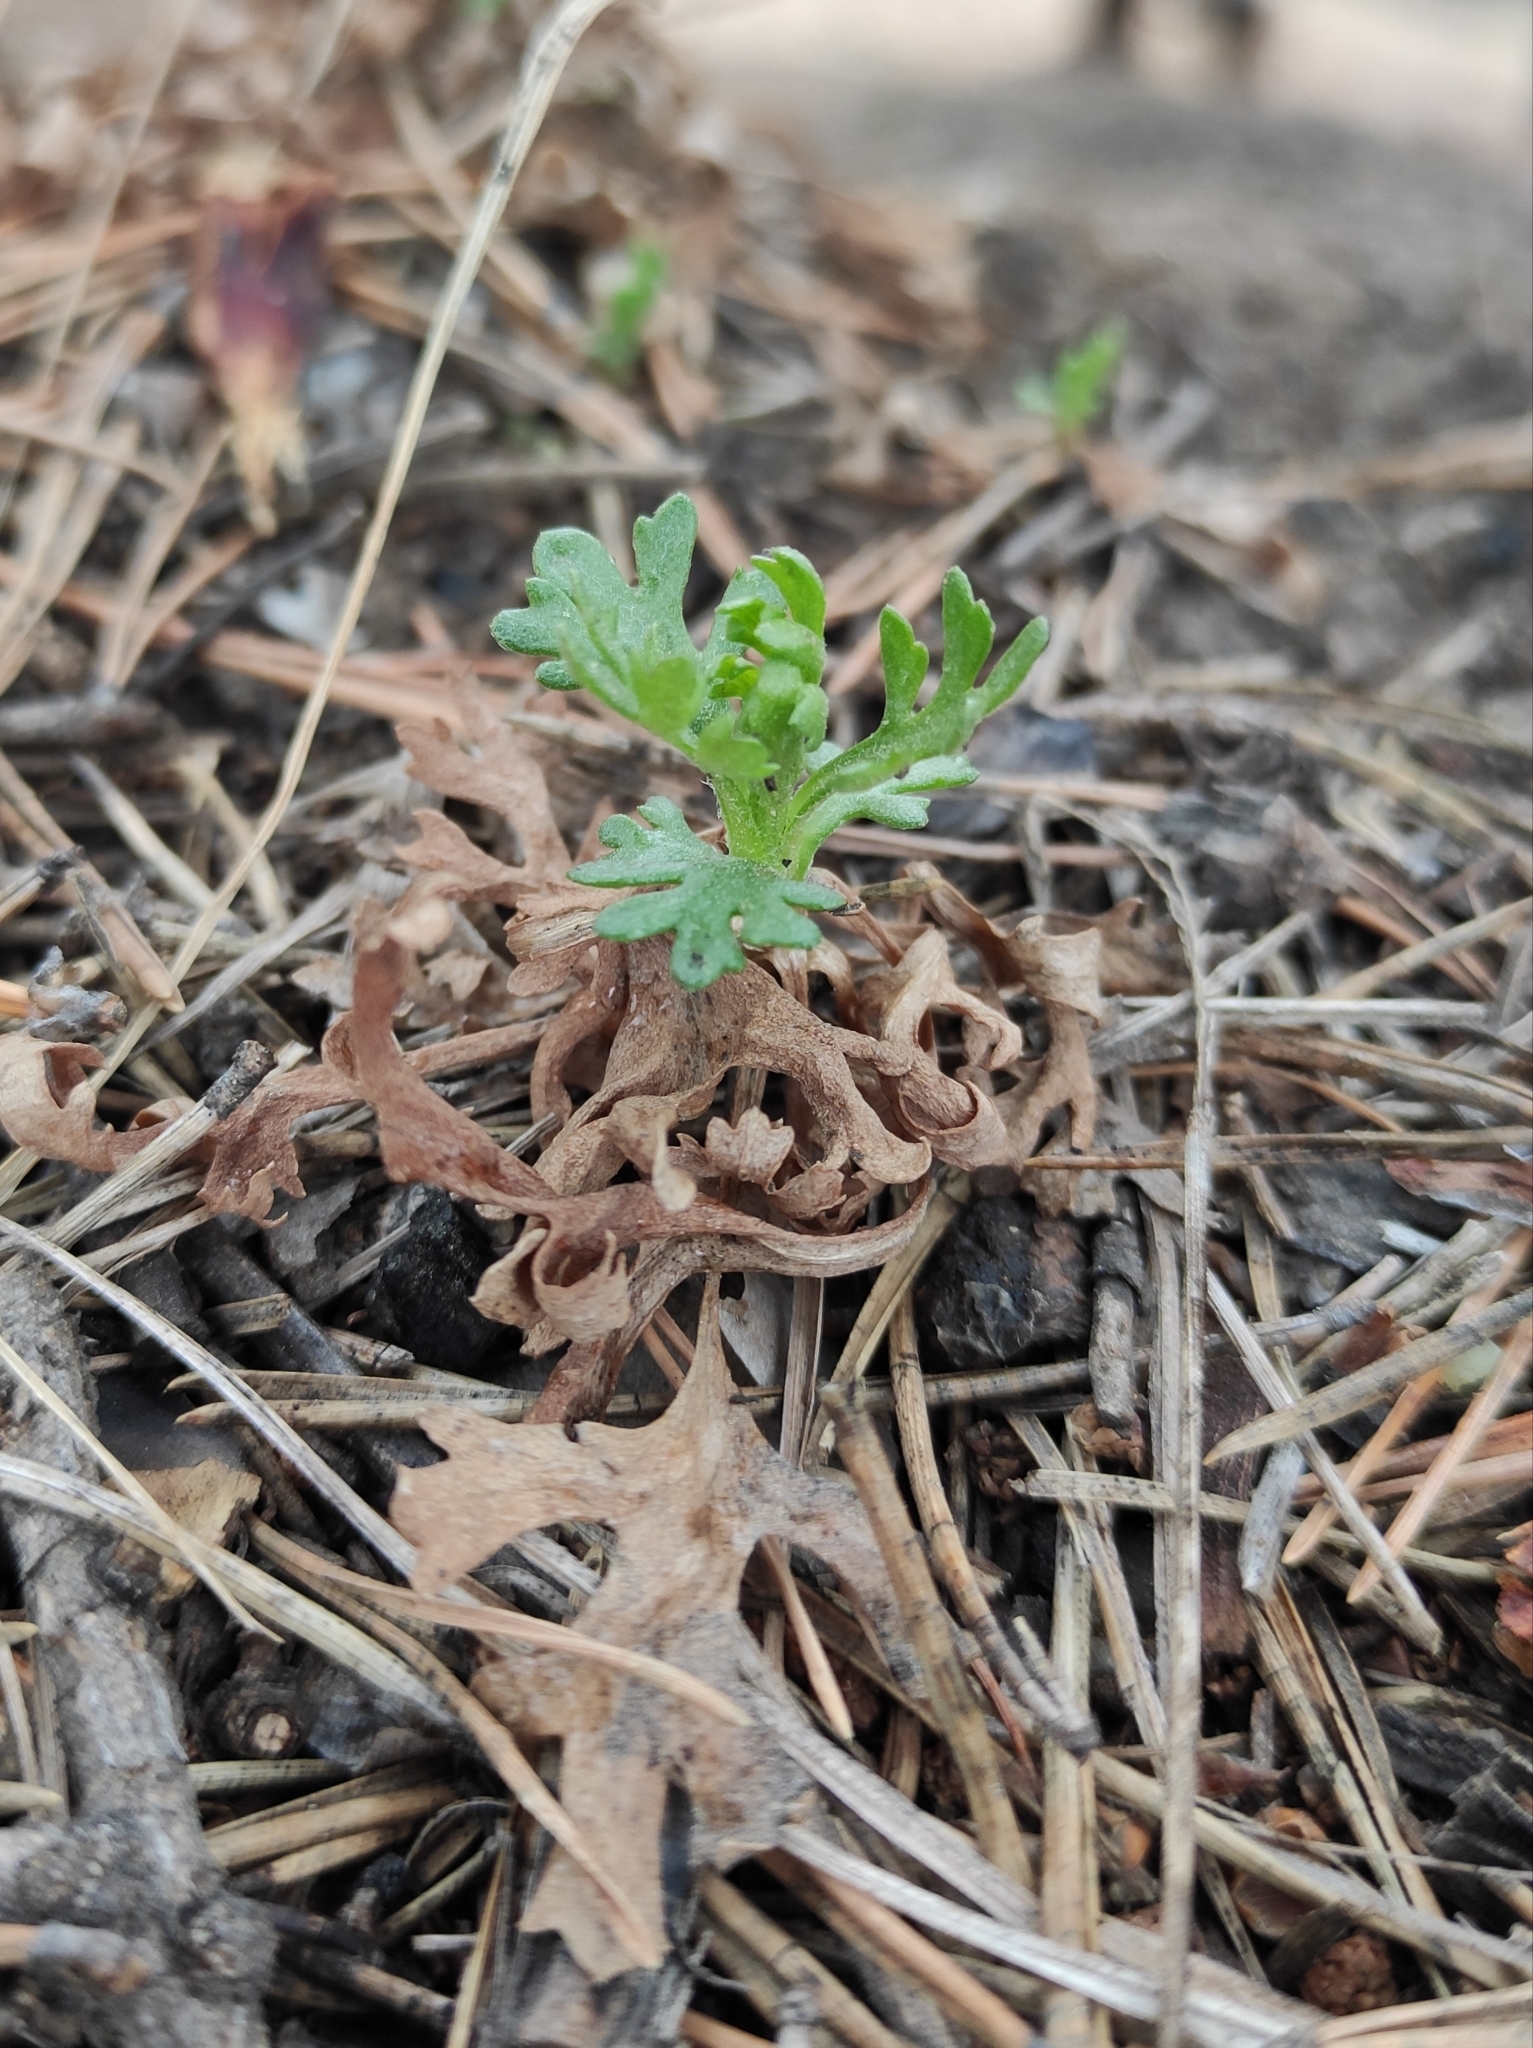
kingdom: Plantae
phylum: Tracheophyta
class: Magnoliopsida
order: Asterales
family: Asteraceae
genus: Chrysanthemum
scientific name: Chrysanthemum zawadzkii
